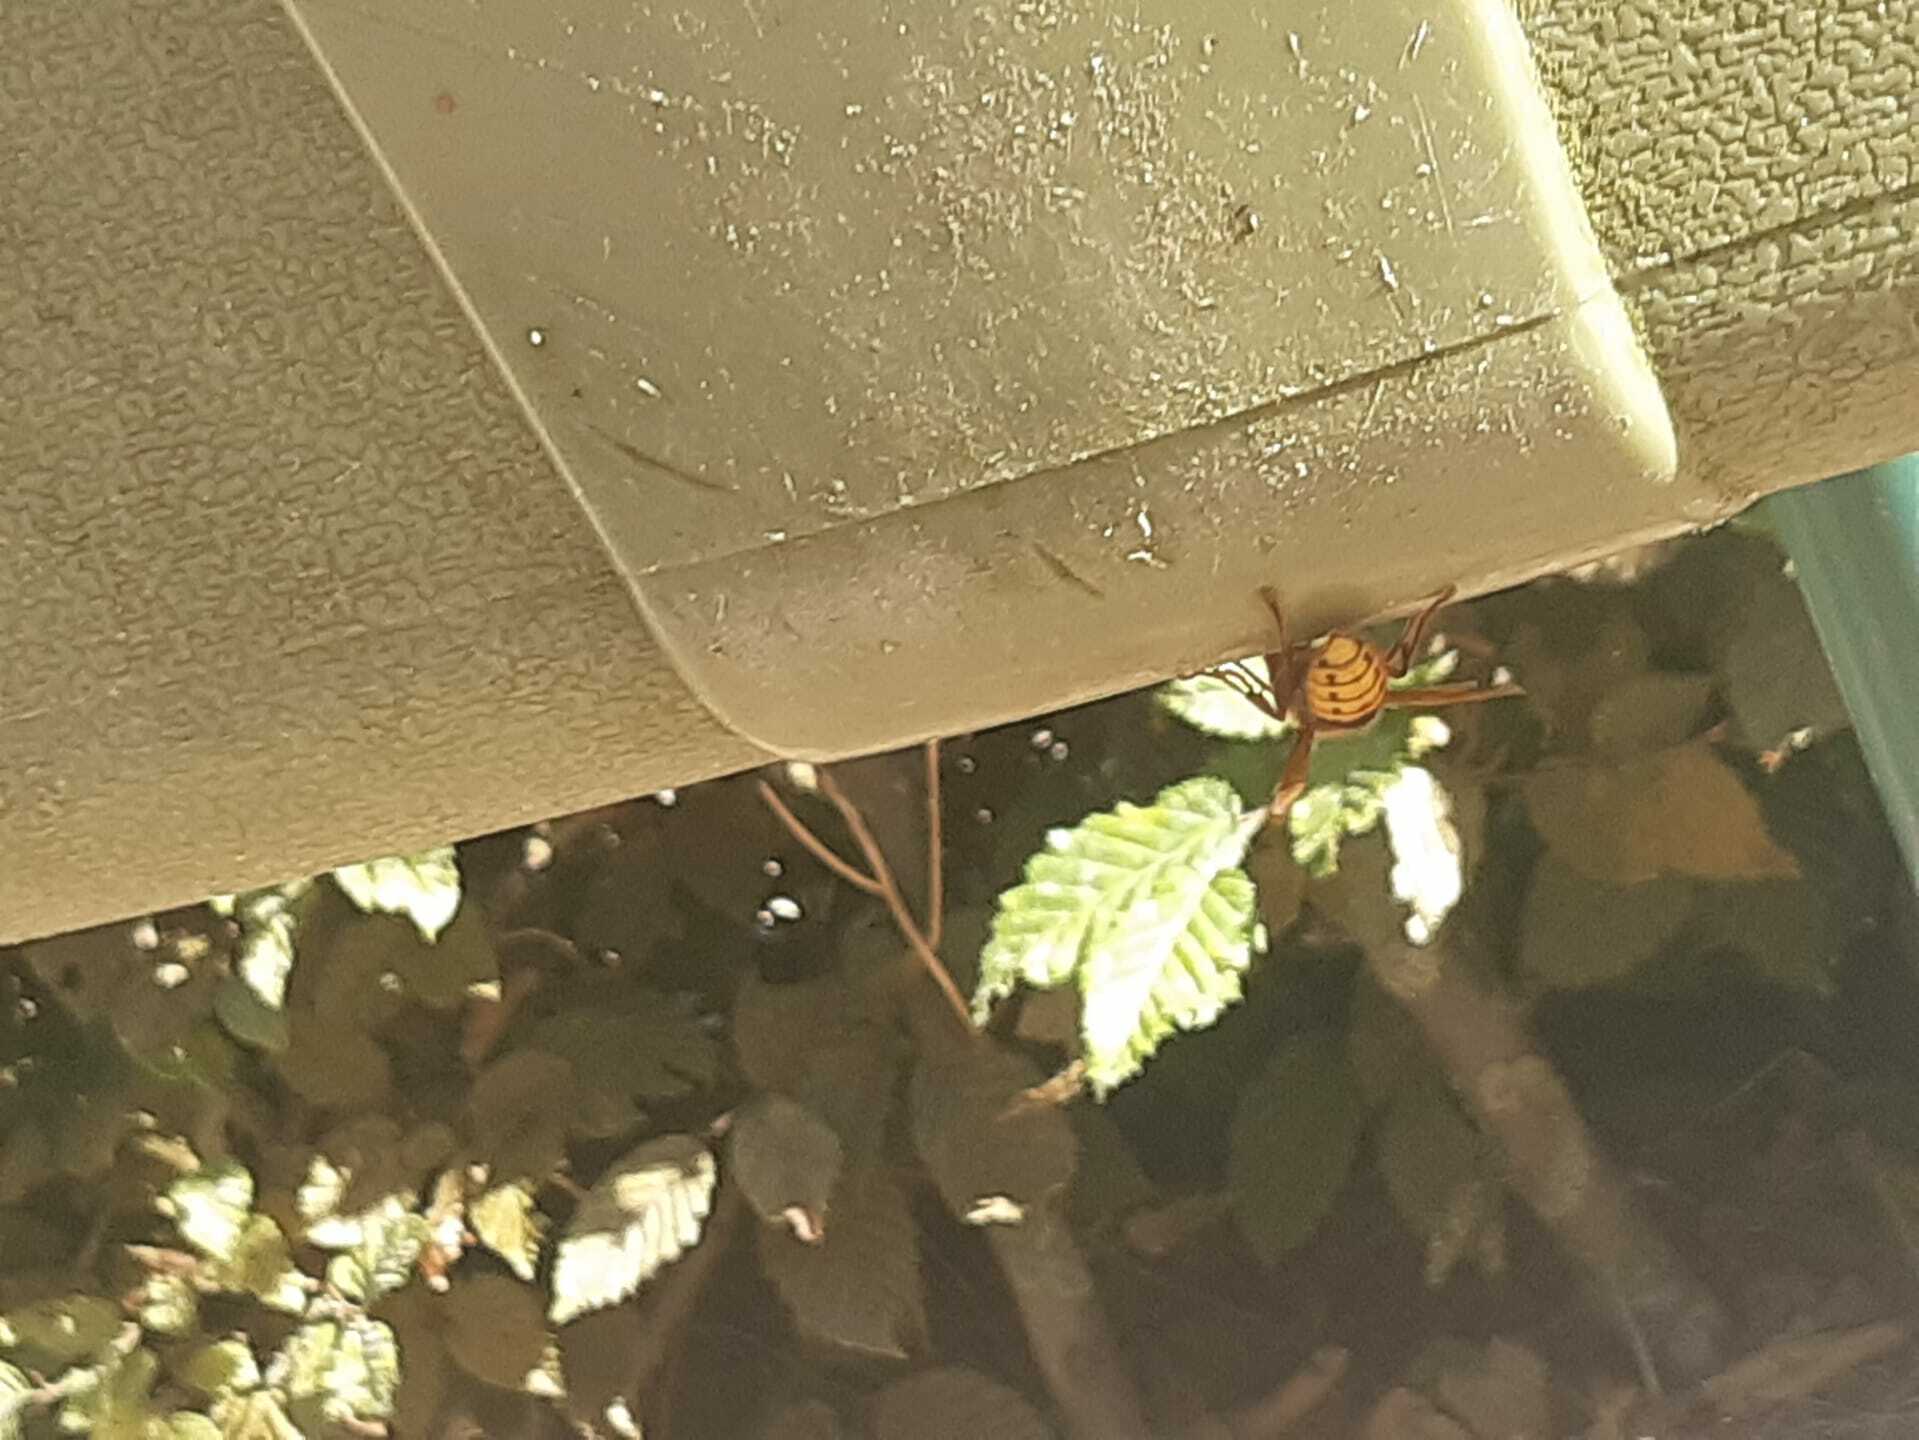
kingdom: Animalia
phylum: Arthropoda
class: Insecta
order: Hymenoptera
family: Vespidae
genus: Vespa
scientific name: Vespa crabro
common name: Hornet
